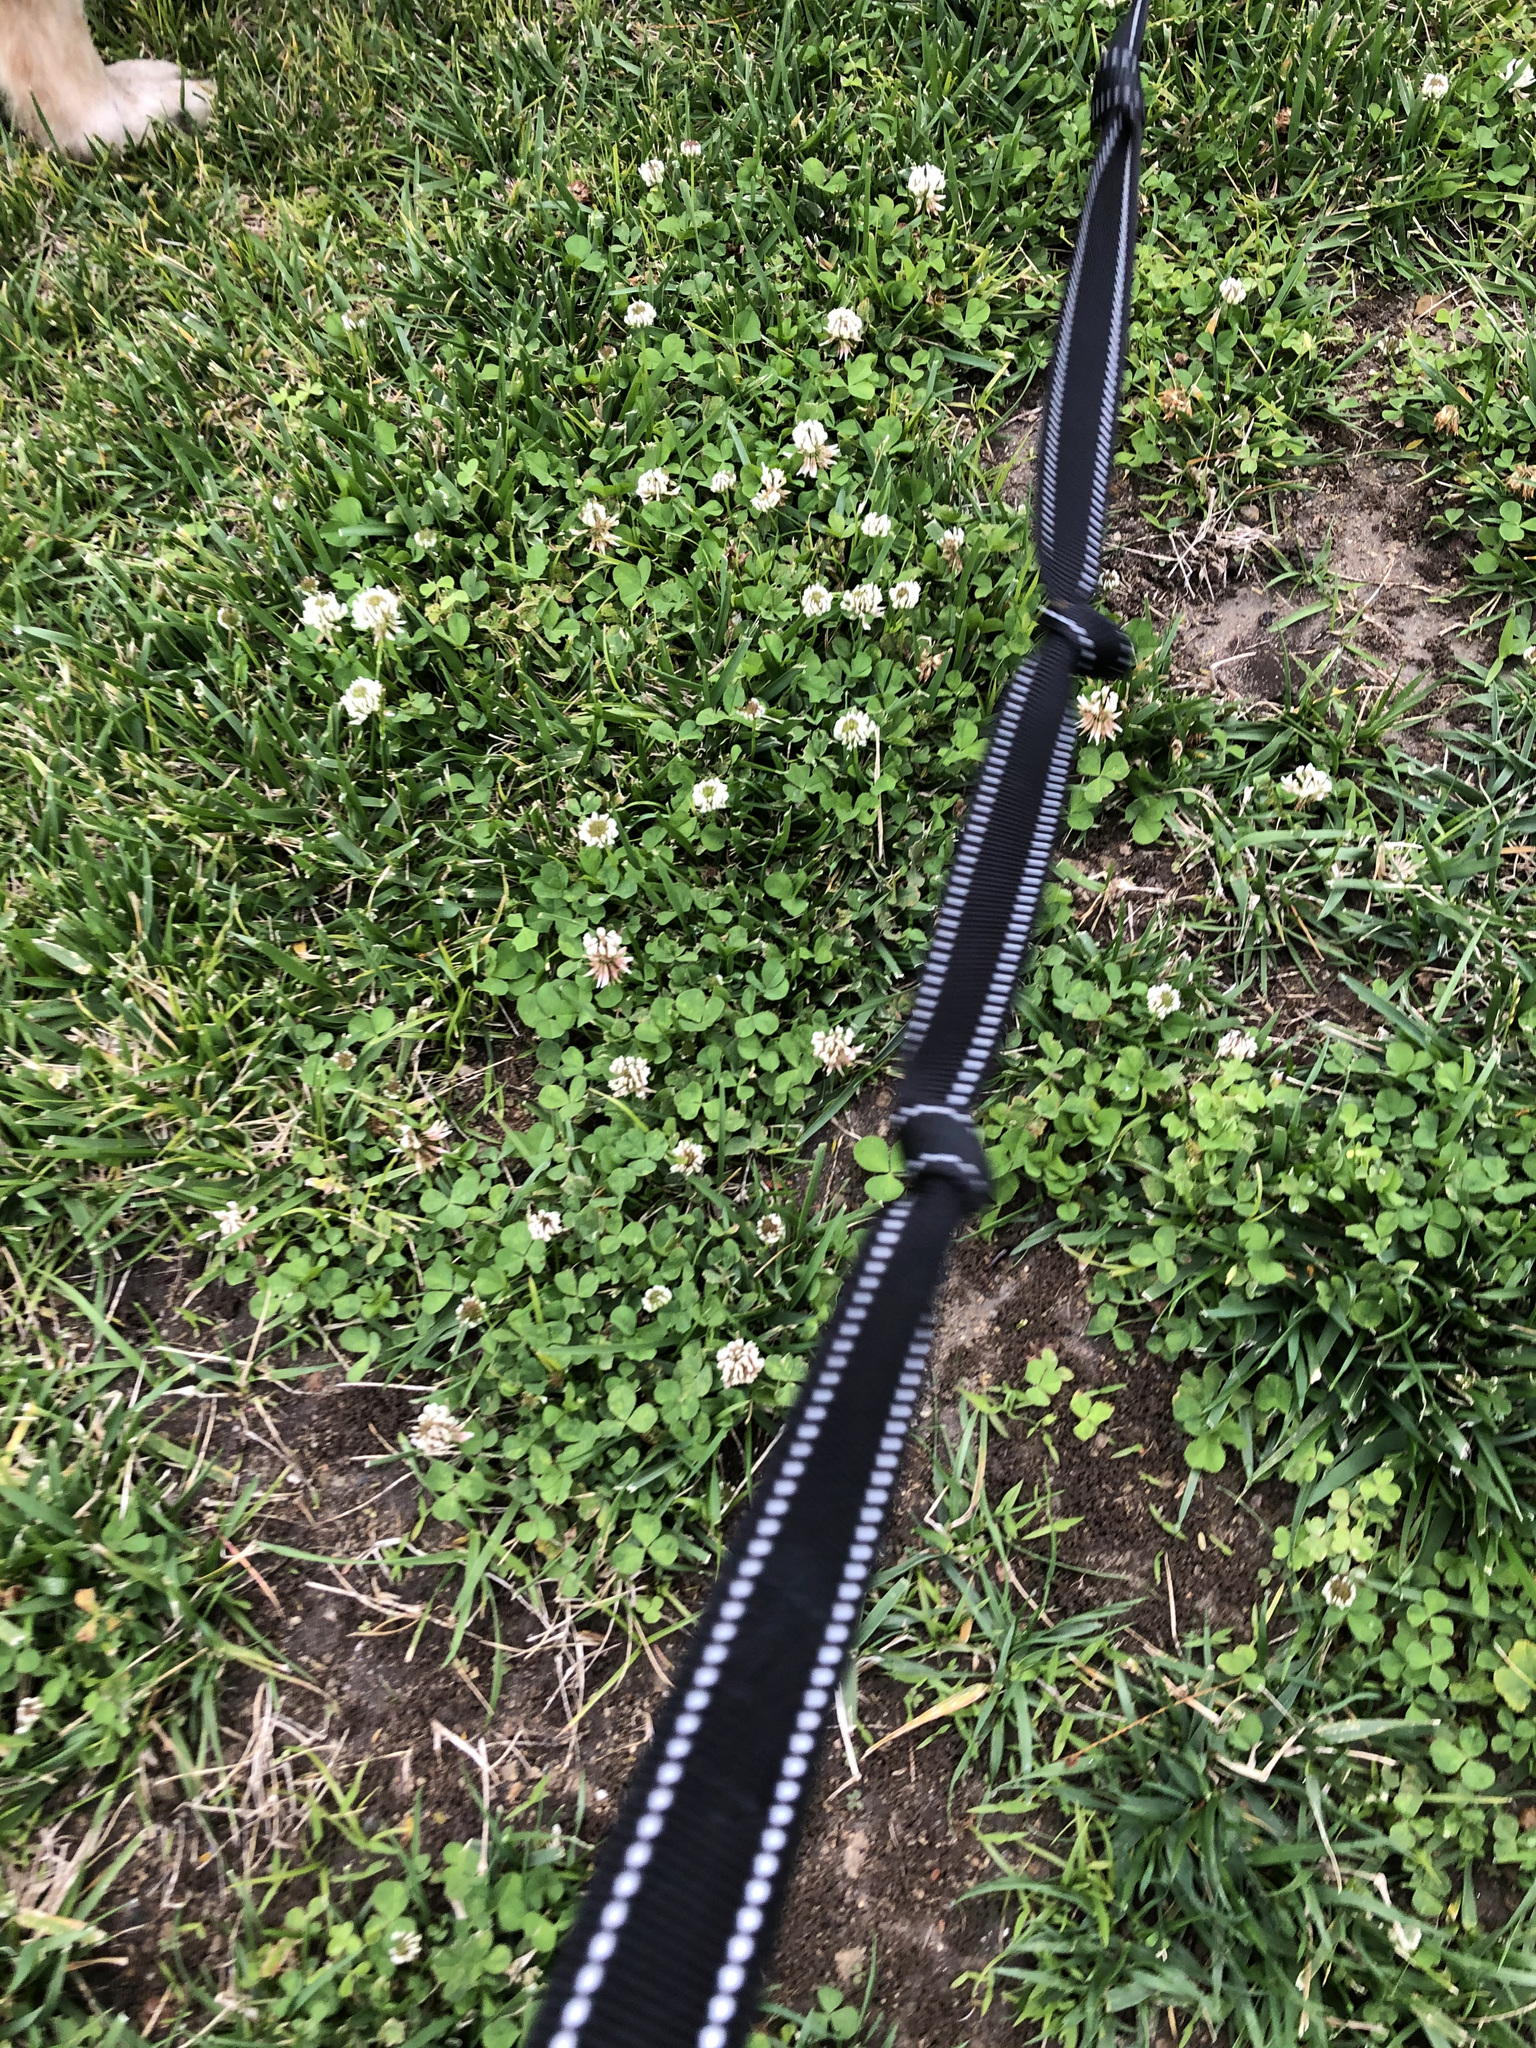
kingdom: Plantae
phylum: Tracheophyta
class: Magnoliopsida
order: Fabales
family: Fabaceae
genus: Trifolium
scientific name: Trifolium repens
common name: White clover
